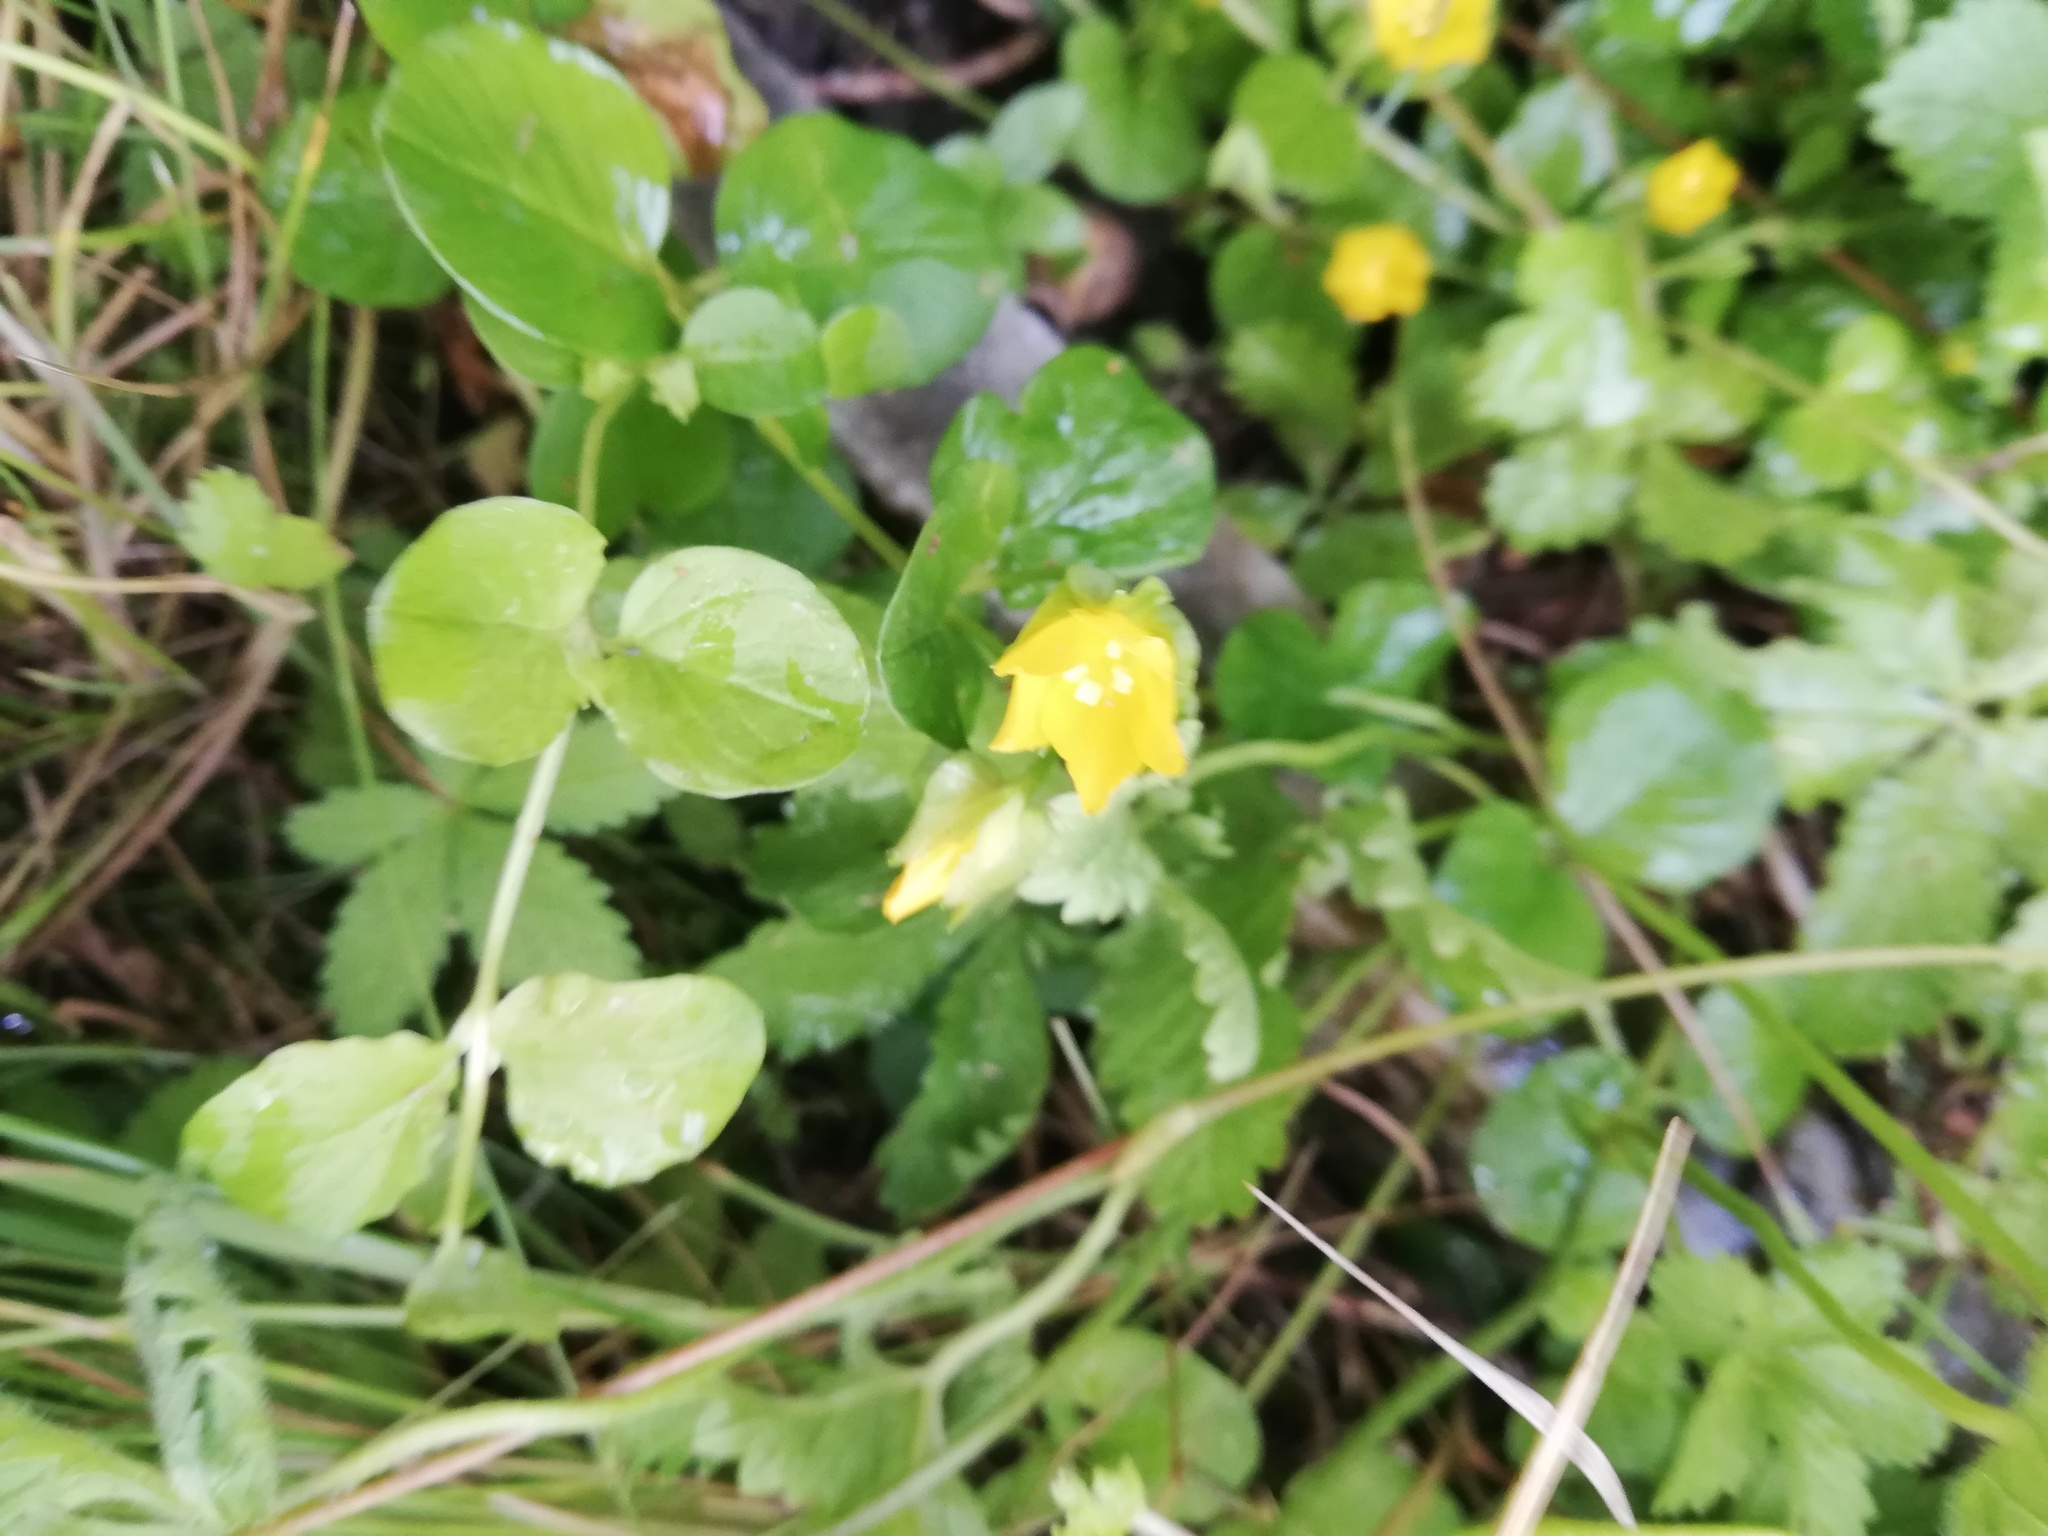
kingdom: Plantae
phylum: Tracheophyta
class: Magnoliopsida
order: Ericales
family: Primulaceae
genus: Lysimachia
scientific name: Lysimachia nummularia
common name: Moneywort
